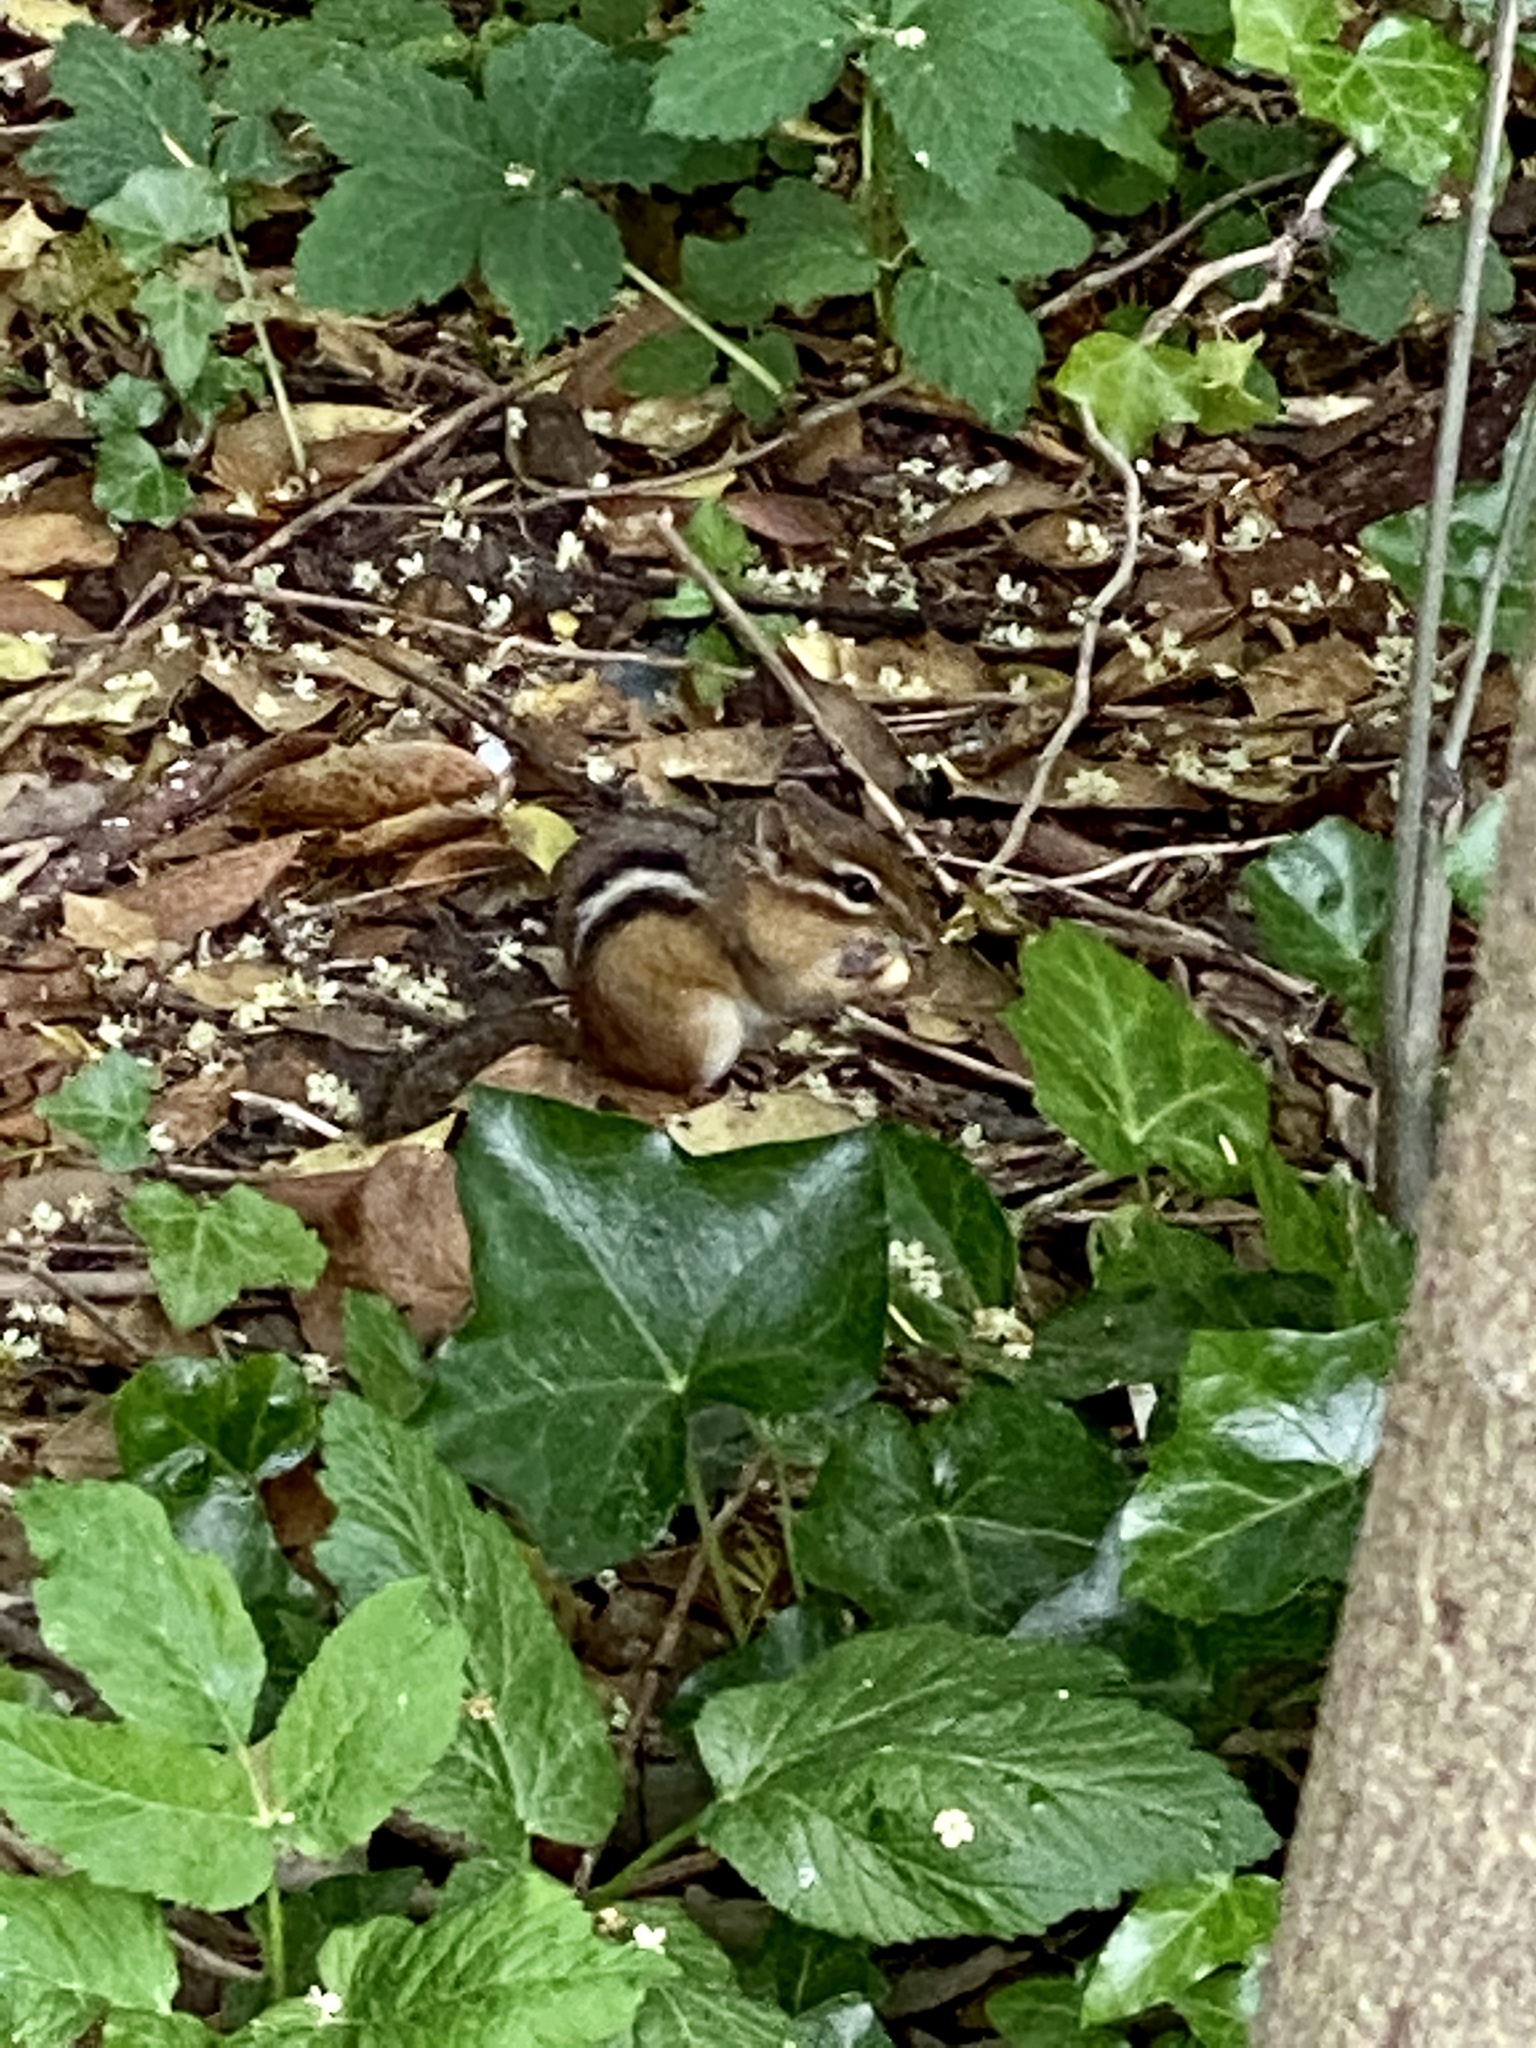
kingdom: Animalia
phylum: Chordata
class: Mammalia
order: Rodentia
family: Sciuridae
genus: Tamias
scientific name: Tamias striatus
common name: Eastern chipmunk
